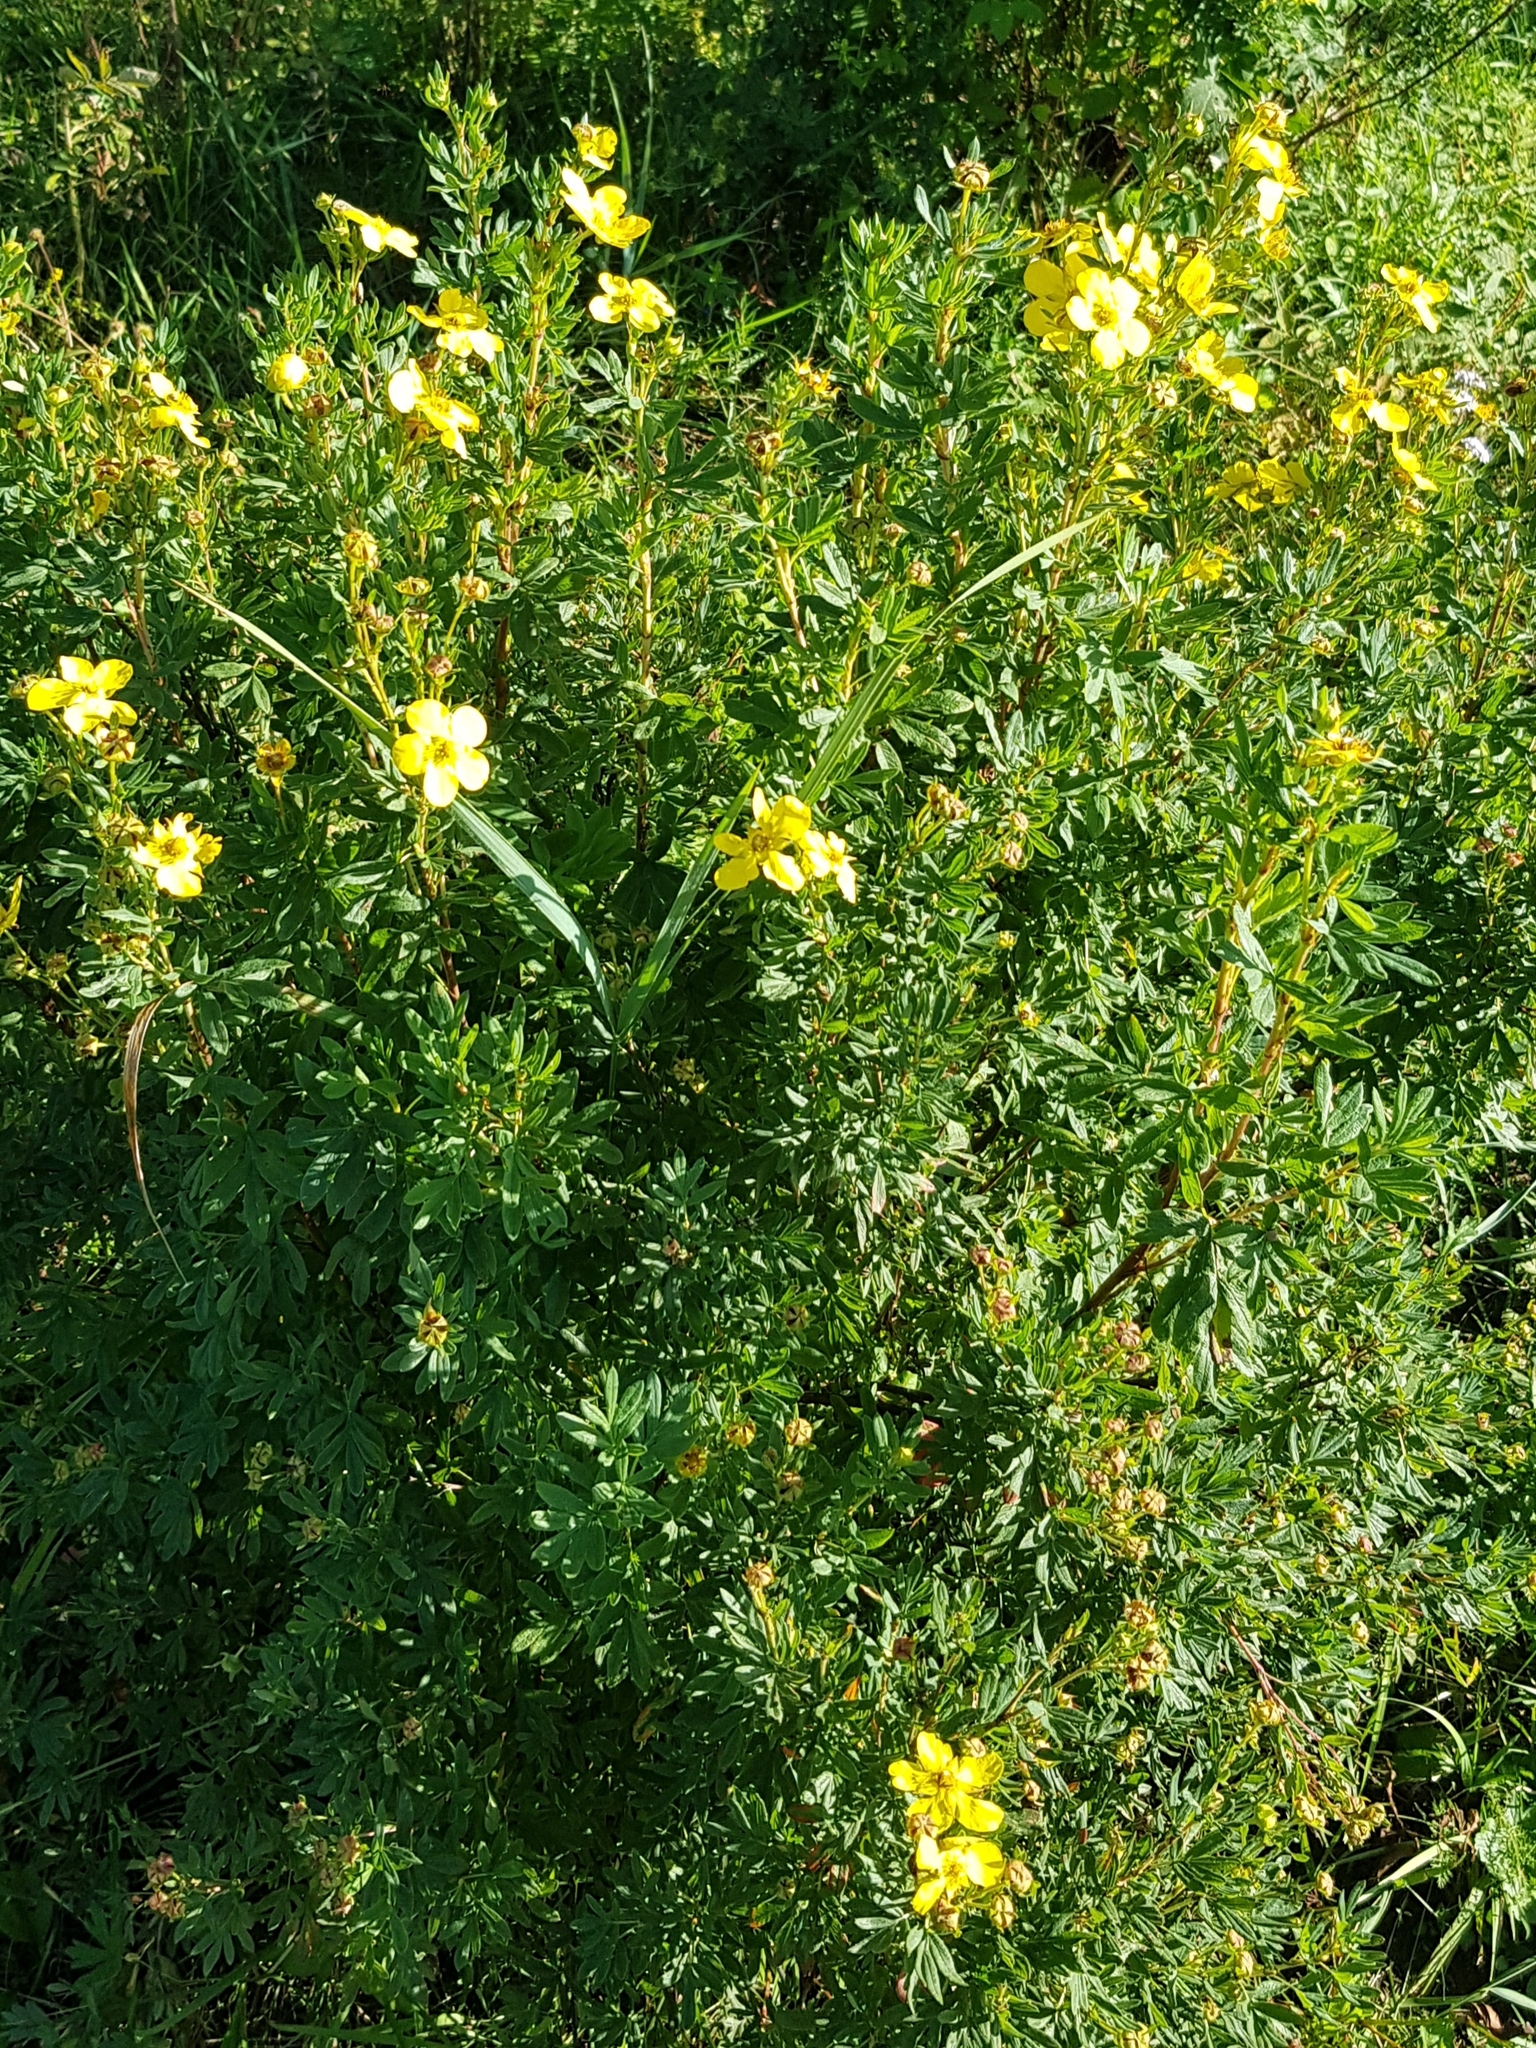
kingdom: Plantae
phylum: Tracheophyta
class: Magnoliopsida
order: Rosales
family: Rosaceae
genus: Dasiphora
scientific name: Dasiphora fruticosa
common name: Shrubby cinquefoil
